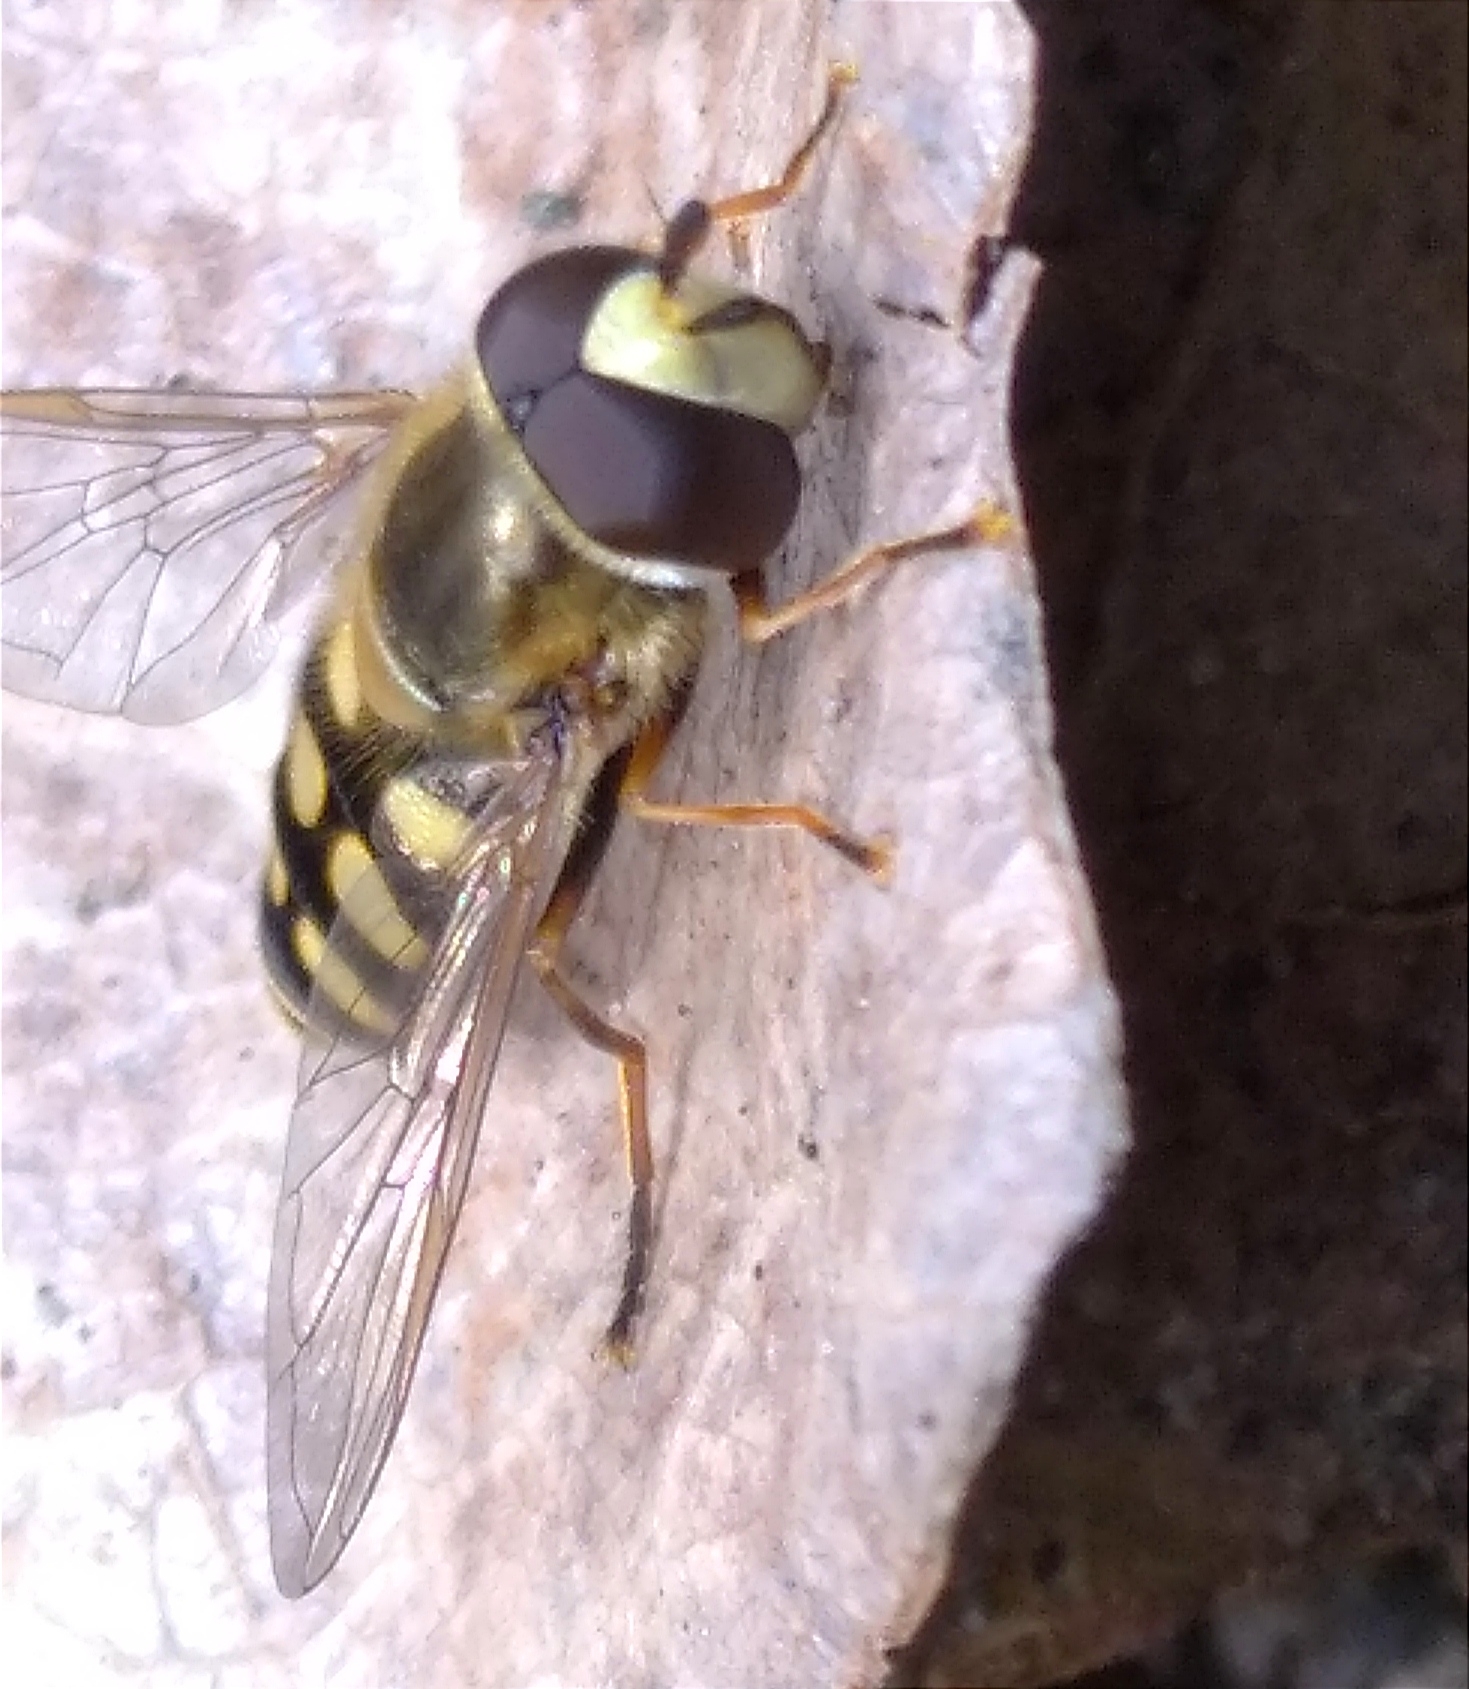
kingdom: Animalia
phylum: Arthropoda
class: Insecta
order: Diptera
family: Syrphidae
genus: Eupeodes
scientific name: Eupeodes corollae
